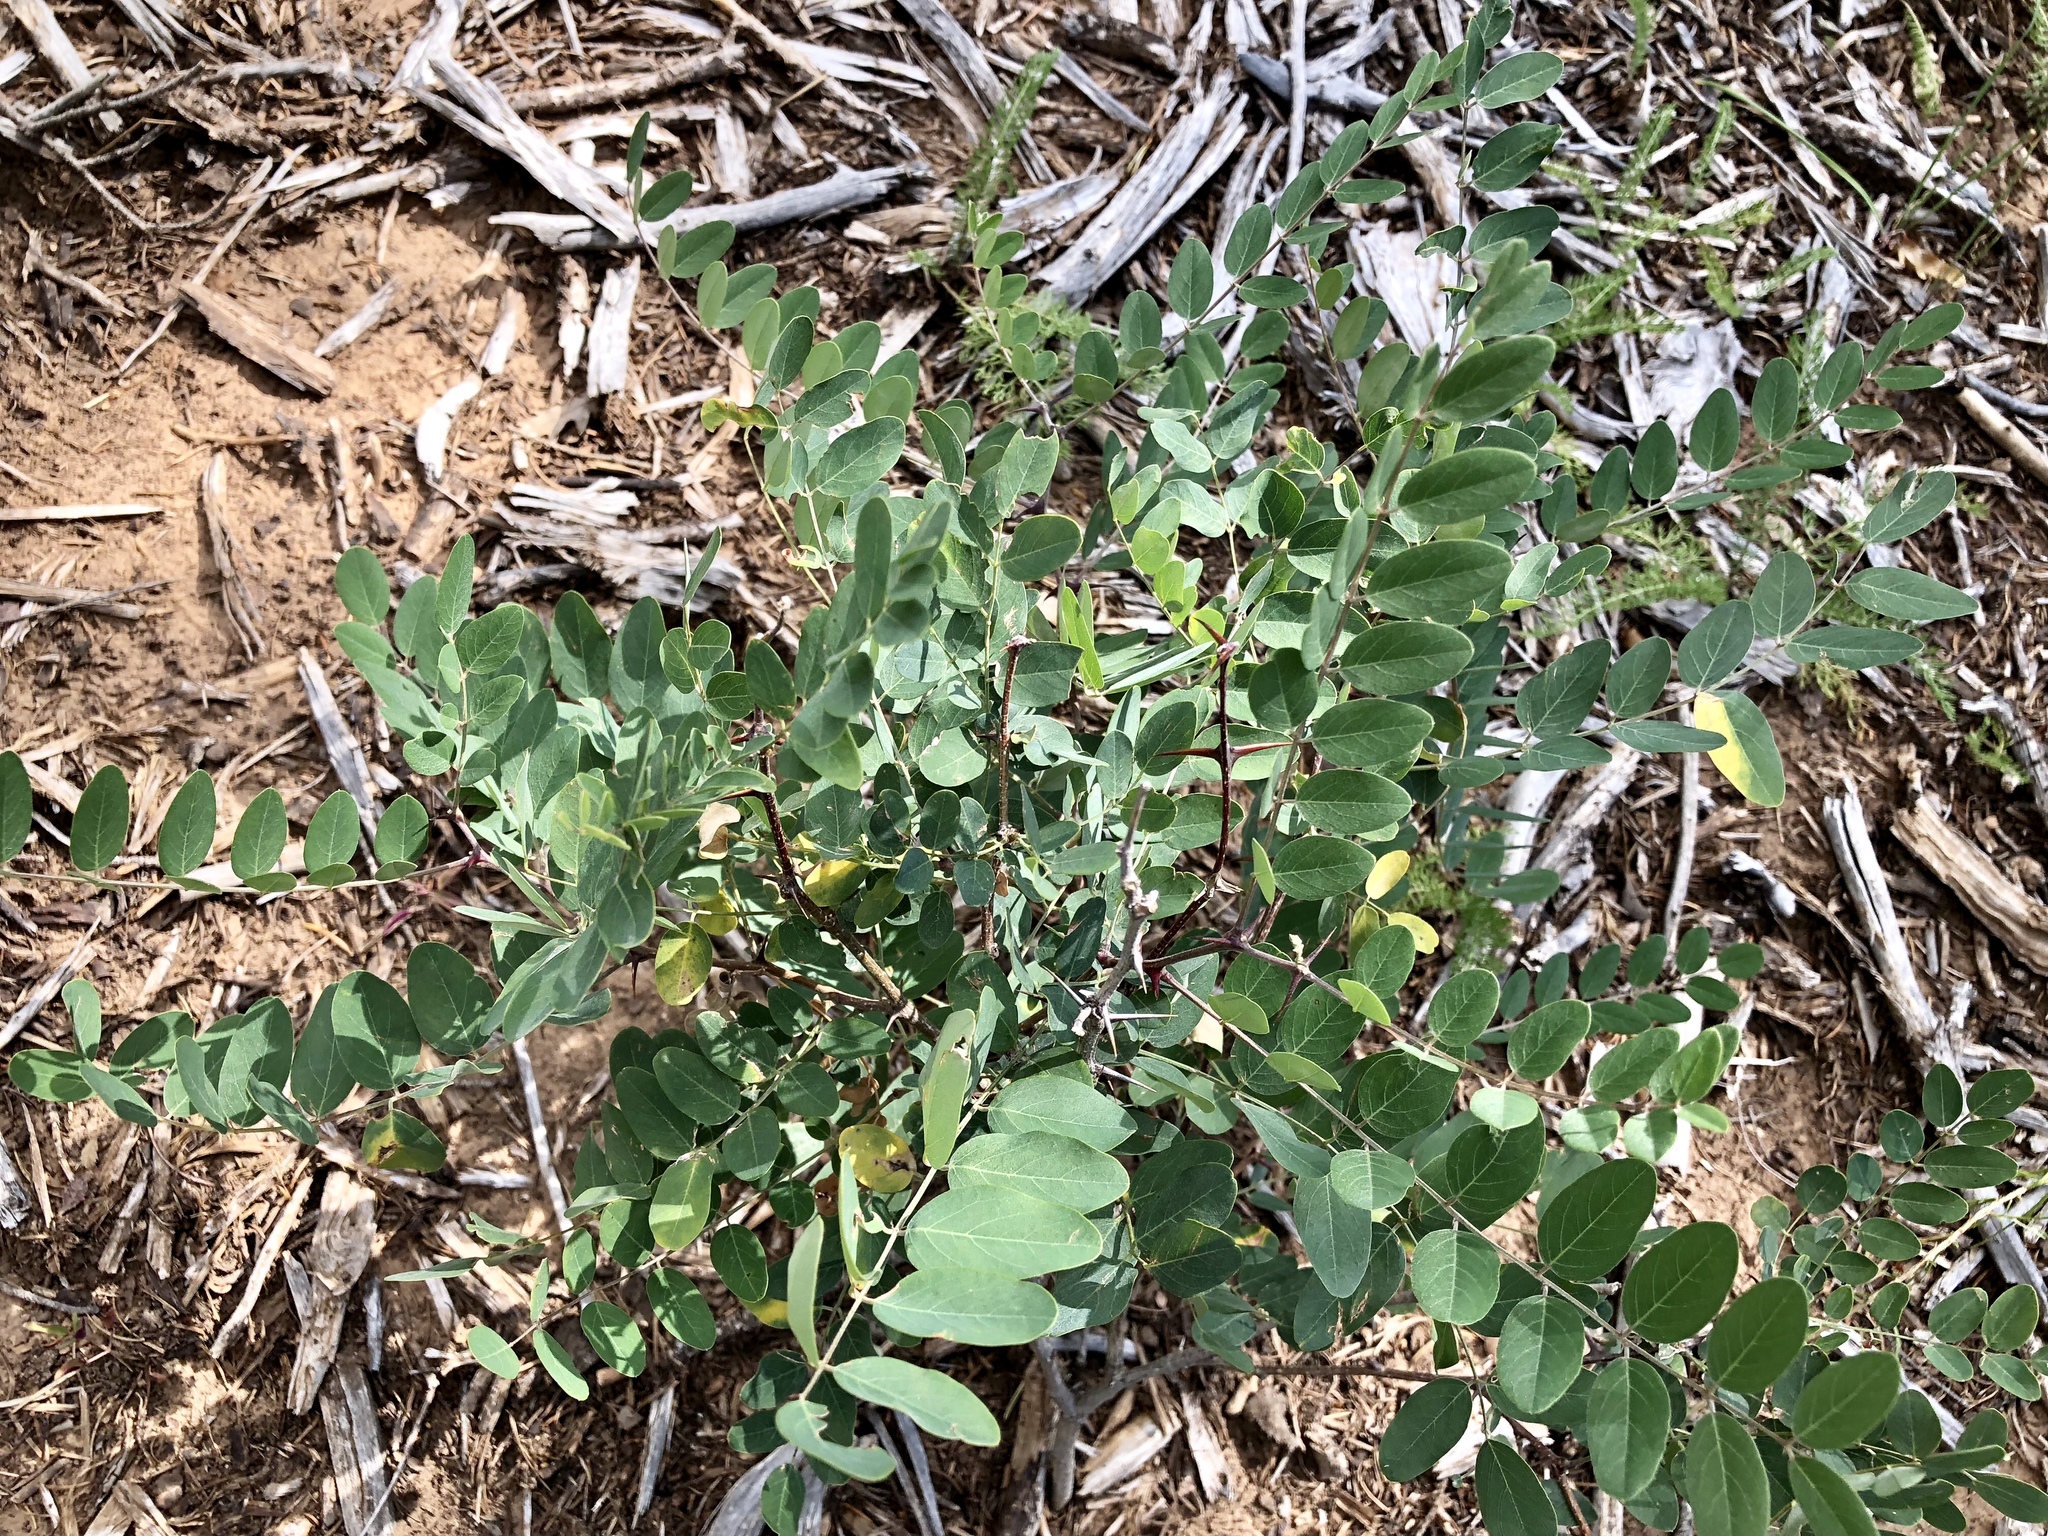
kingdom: Plantae
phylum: Tracheophyta
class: Magnoliopsida
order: Fabales
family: Fabaceae
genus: Robinia
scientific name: Robinia neomexicana
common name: New mexico locust
